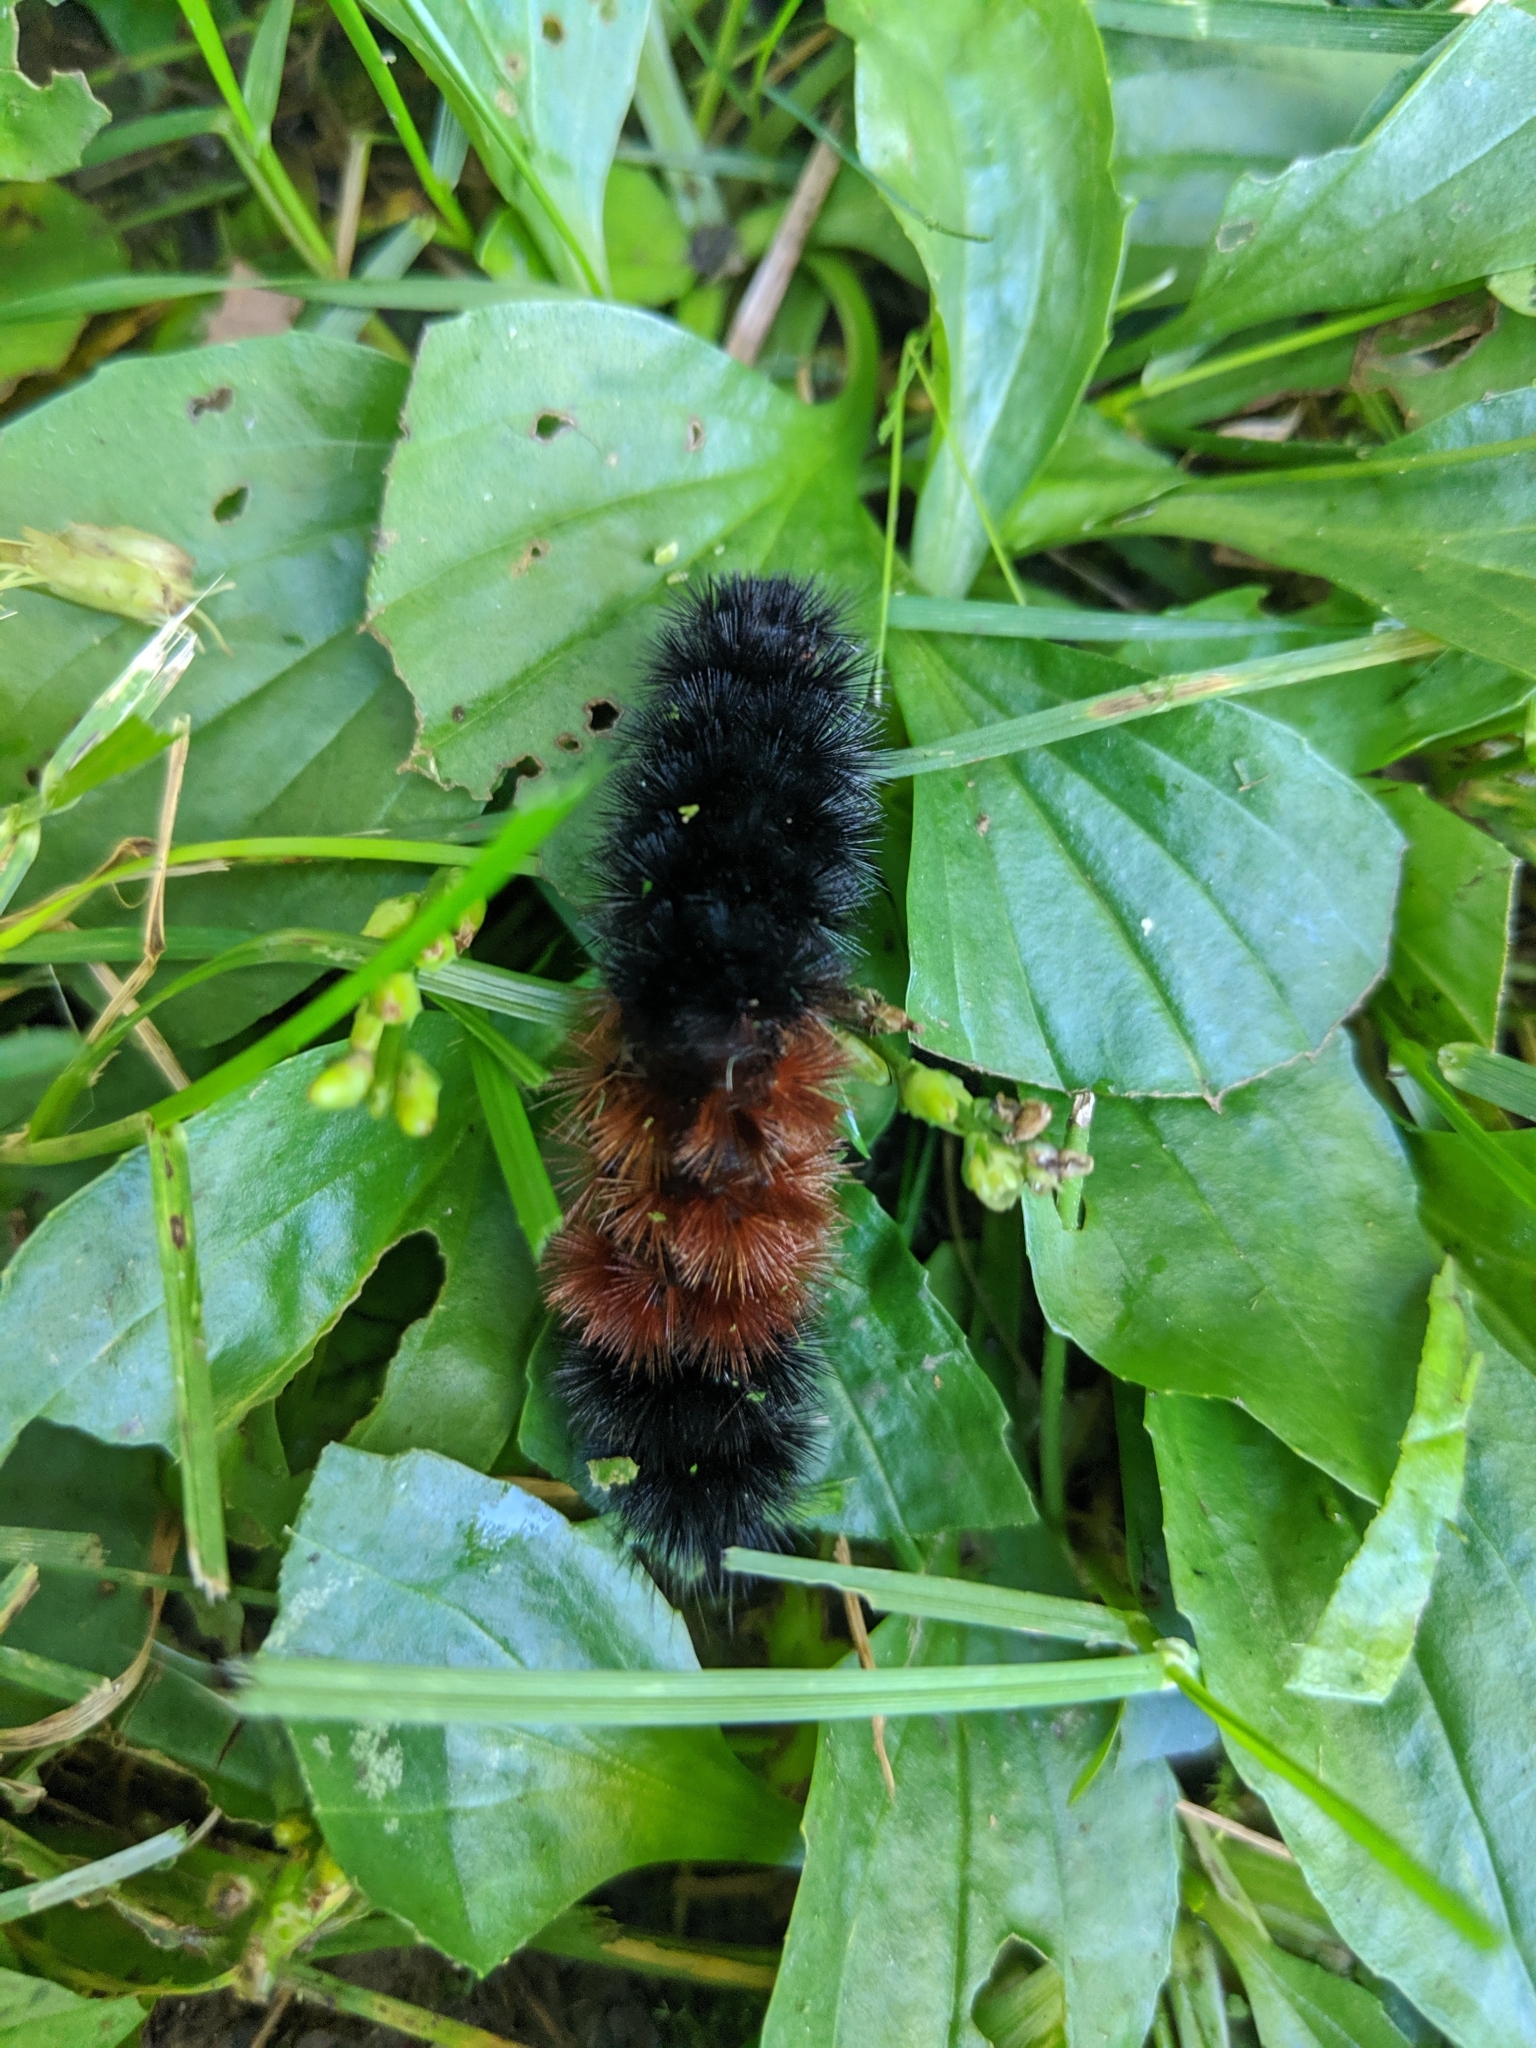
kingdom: Animalia
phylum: Arthropoda
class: Insecta
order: Lepidoptera
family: Erebidae
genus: Pyrrharctia
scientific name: Pyrrharctia isabella
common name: Isabella tiger moth
